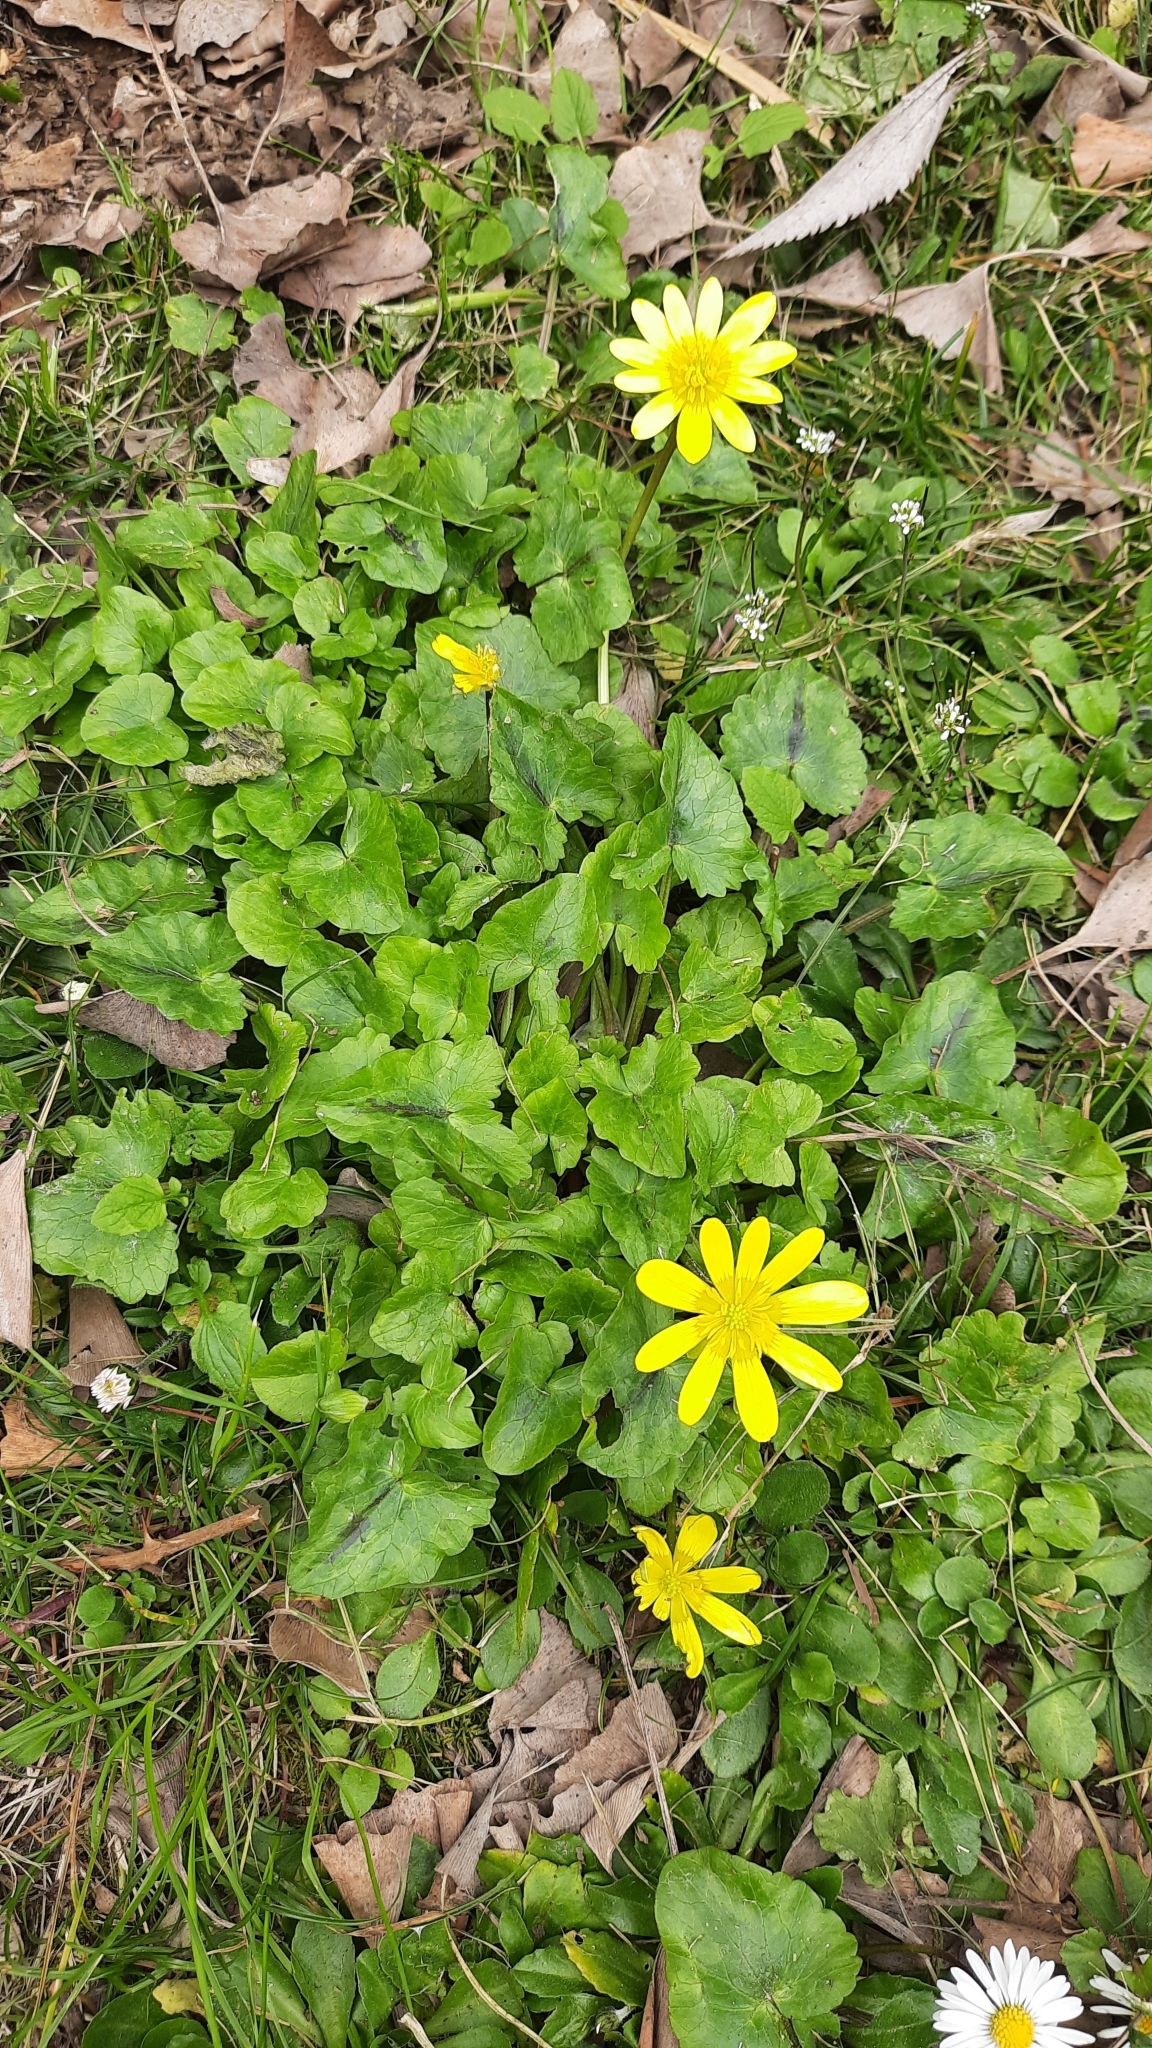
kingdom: Plantae
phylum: Tracheophyta
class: Magnoliopsida
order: Ranunculales
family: Ranunculaceae
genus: Ficaria
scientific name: Ficaria verna
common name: Lesser celandine
